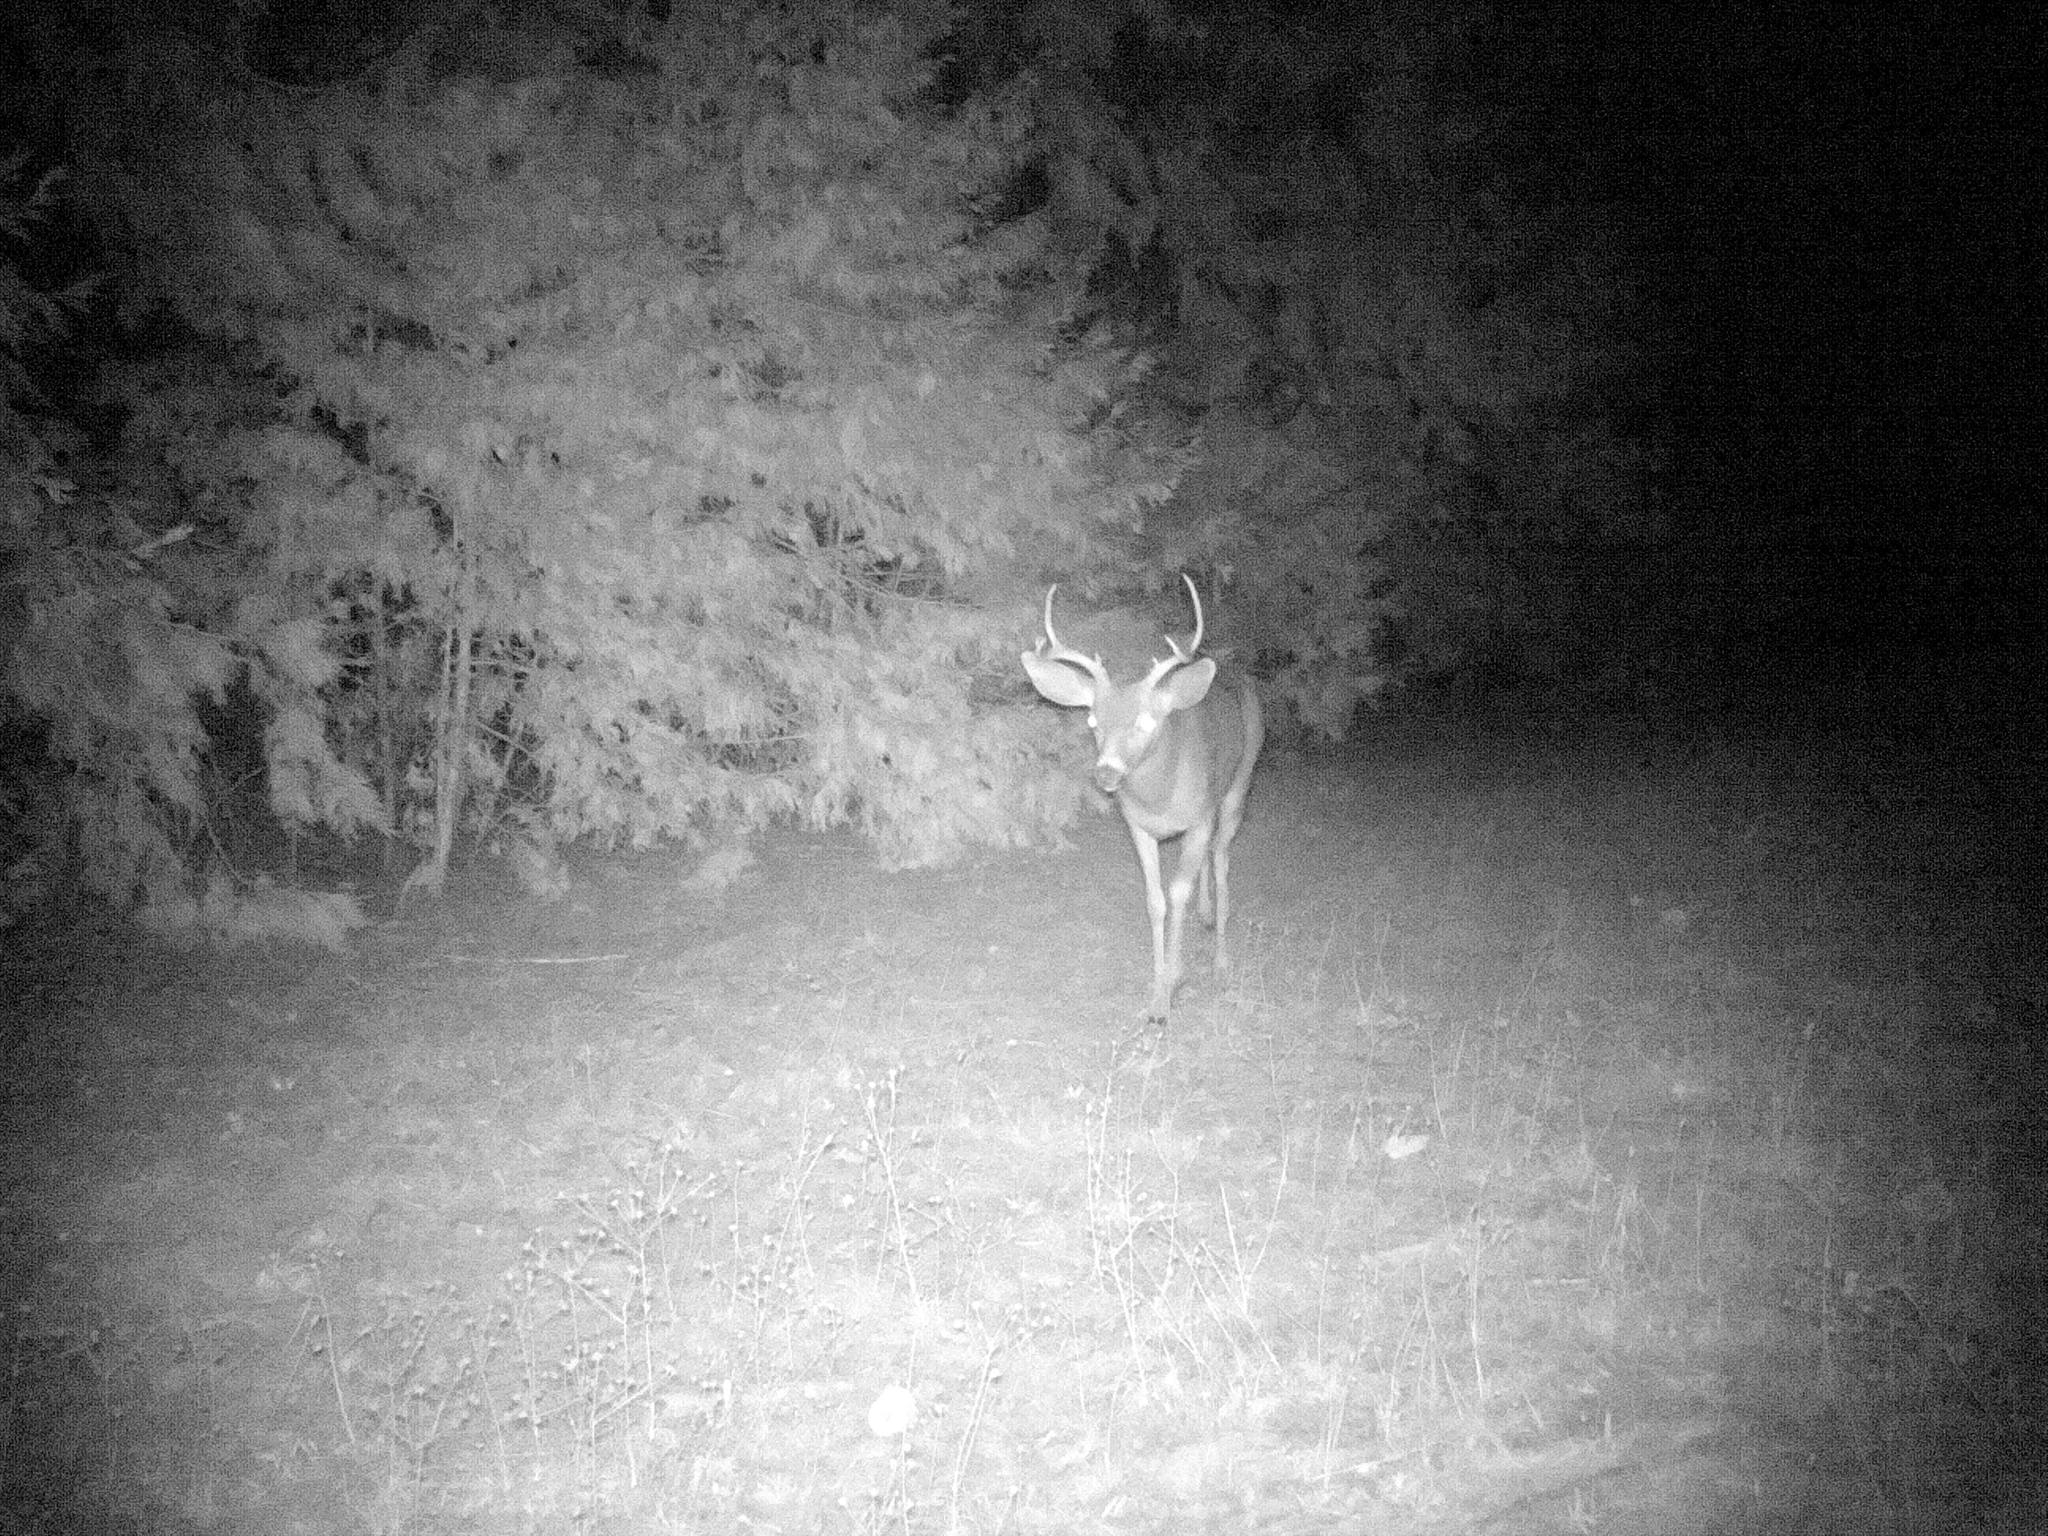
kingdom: Animalia
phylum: Chordata
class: Mammalia
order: Artiodactyla
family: Cervidae
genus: Odocoileus
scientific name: Odocoileus hemionus
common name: Mule deer
